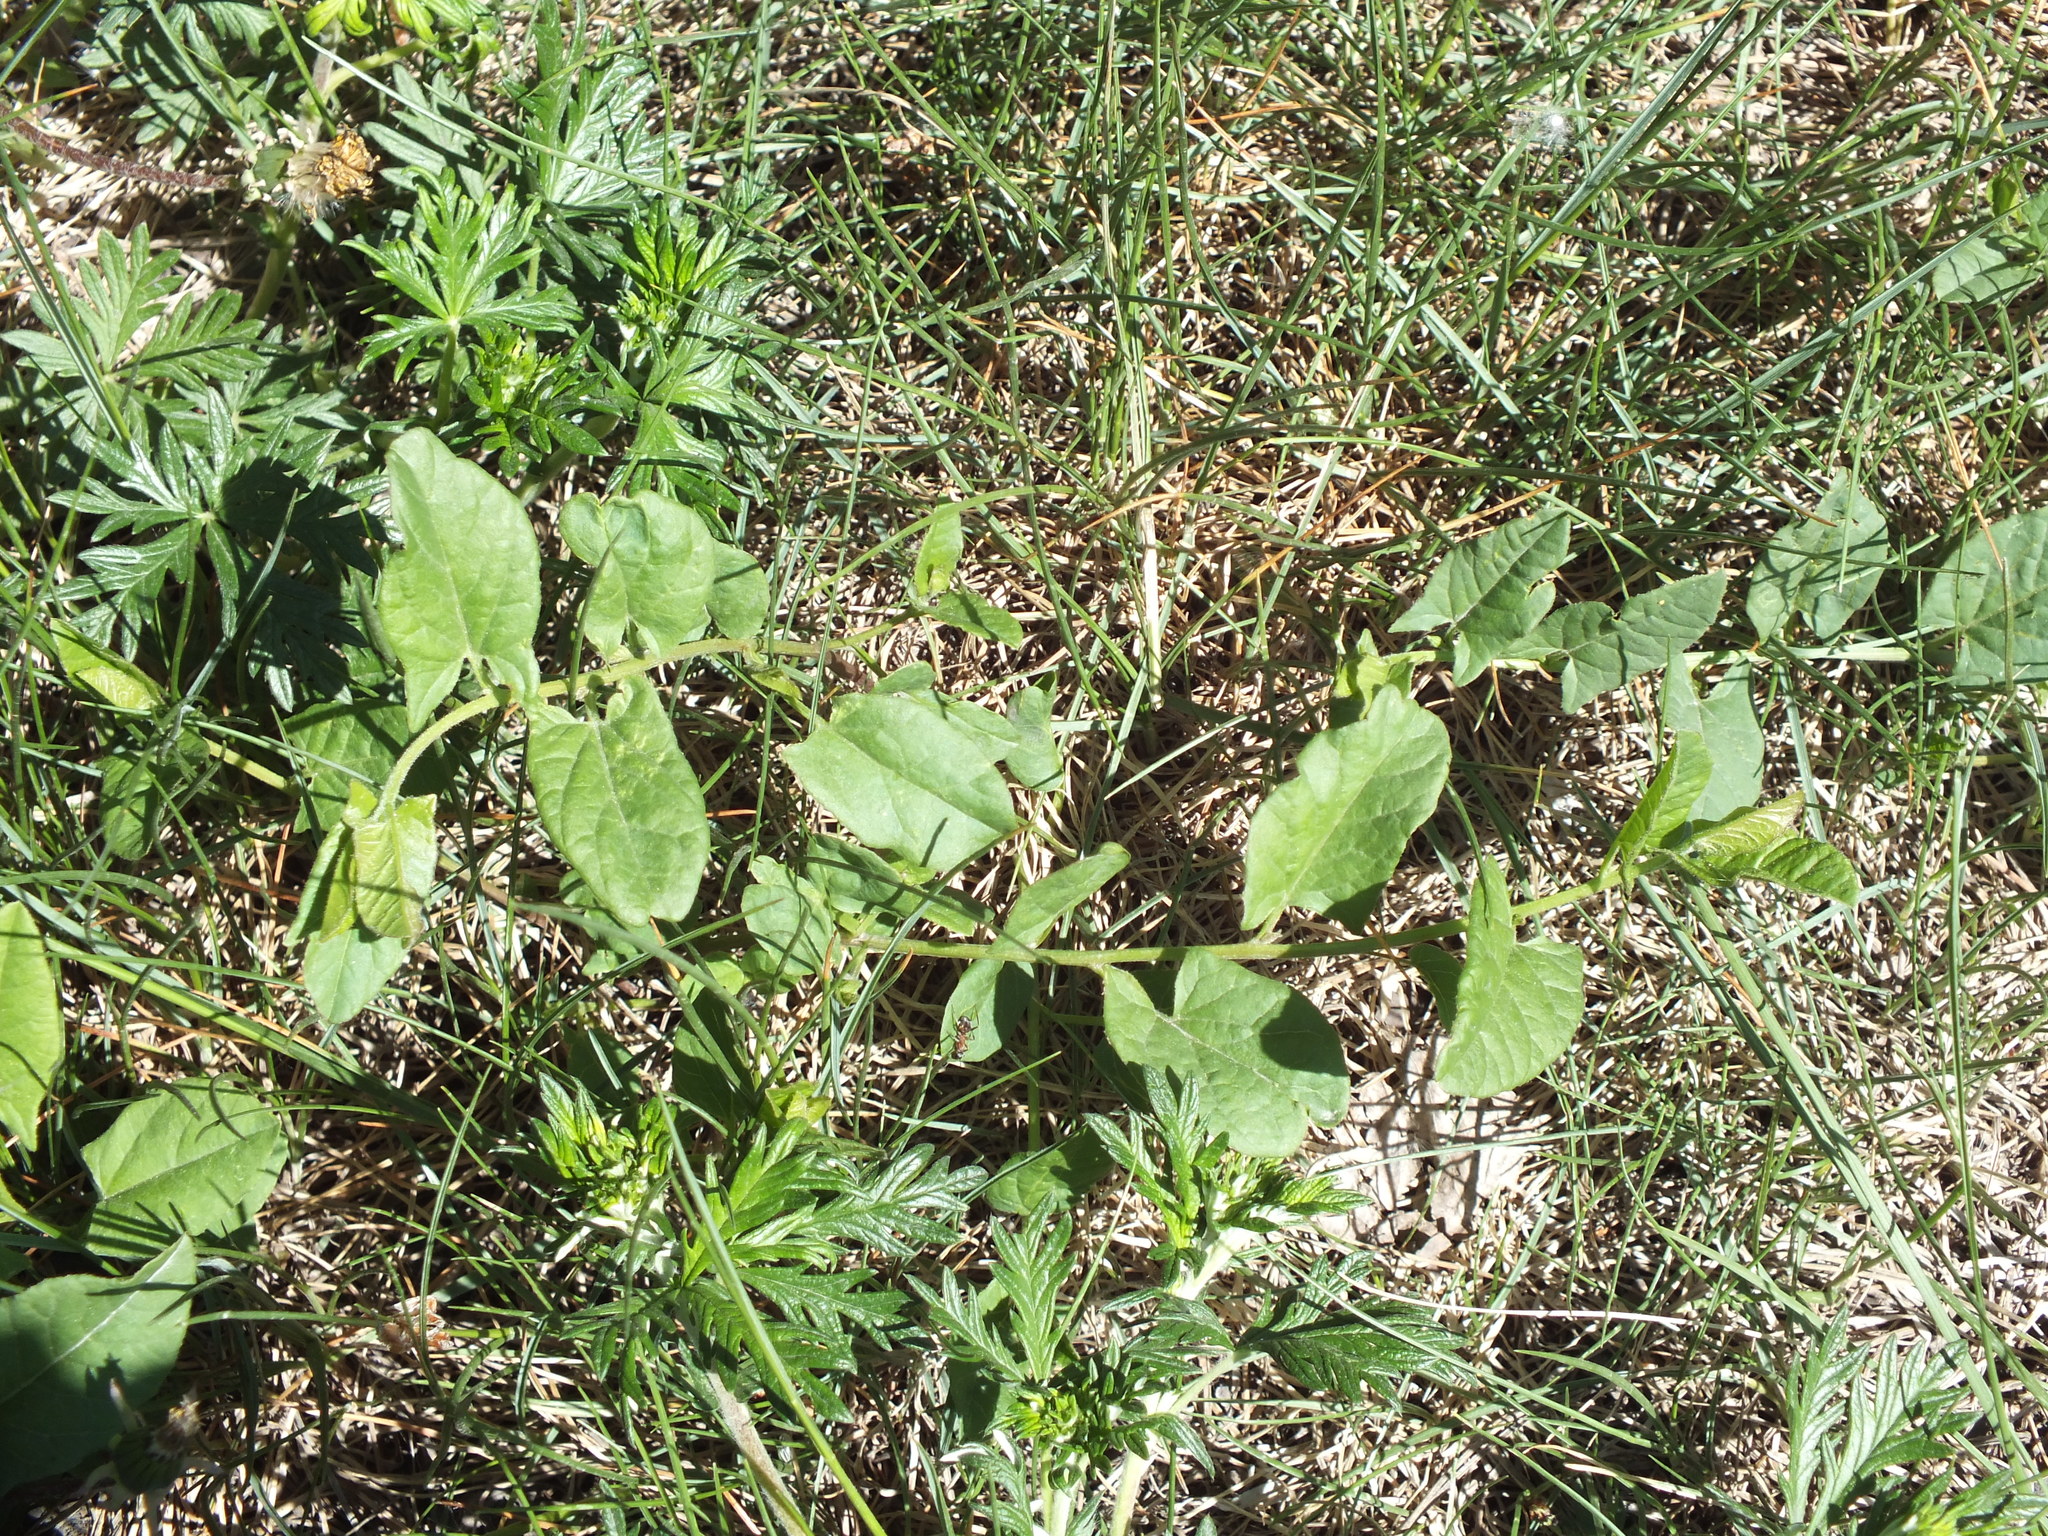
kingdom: Plantae
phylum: Tracheophyta
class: Magnoliopsida
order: Solanales
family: Convolvulaceae
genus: Convolvulus
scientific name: Convolvulus arvensis
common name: Field bindweed
